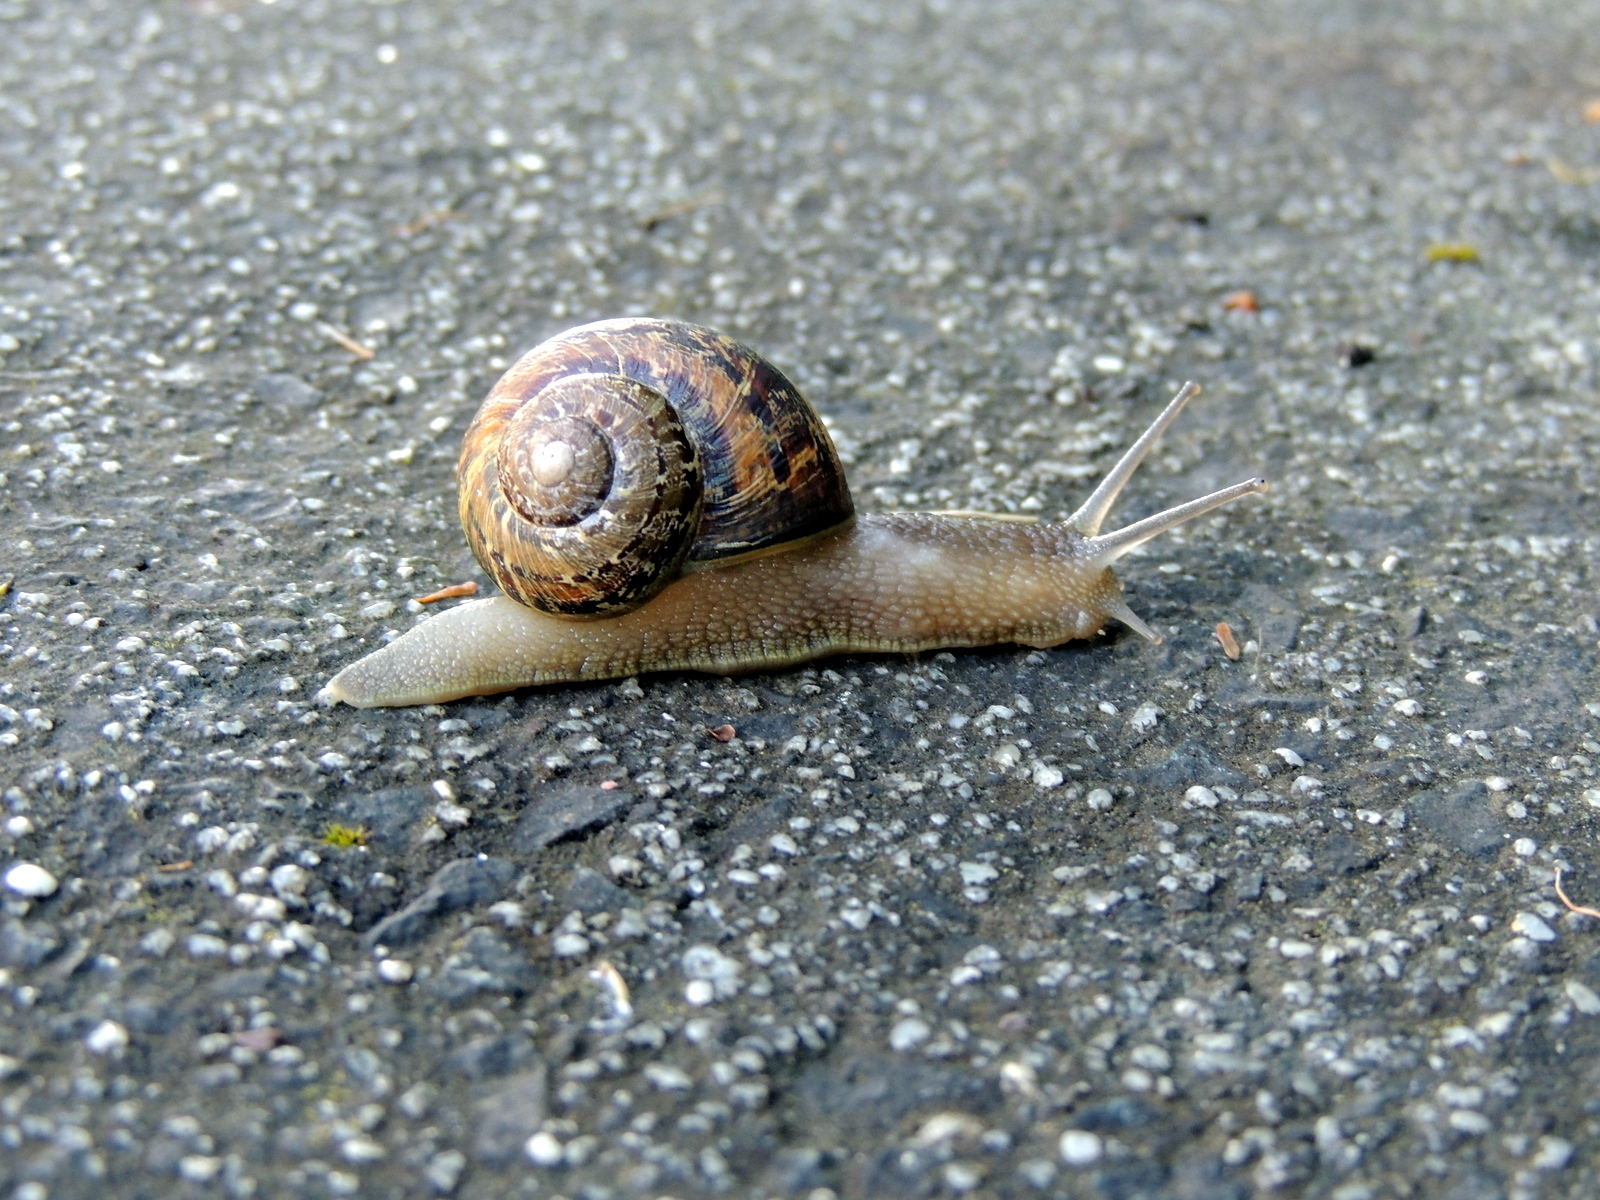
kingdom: Animalia
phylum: Mollusca
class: Gastropoda
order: Stylommatophora
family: Helicidae
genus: Cornu
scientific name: Cornu aspersum
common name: Brown garden snail
